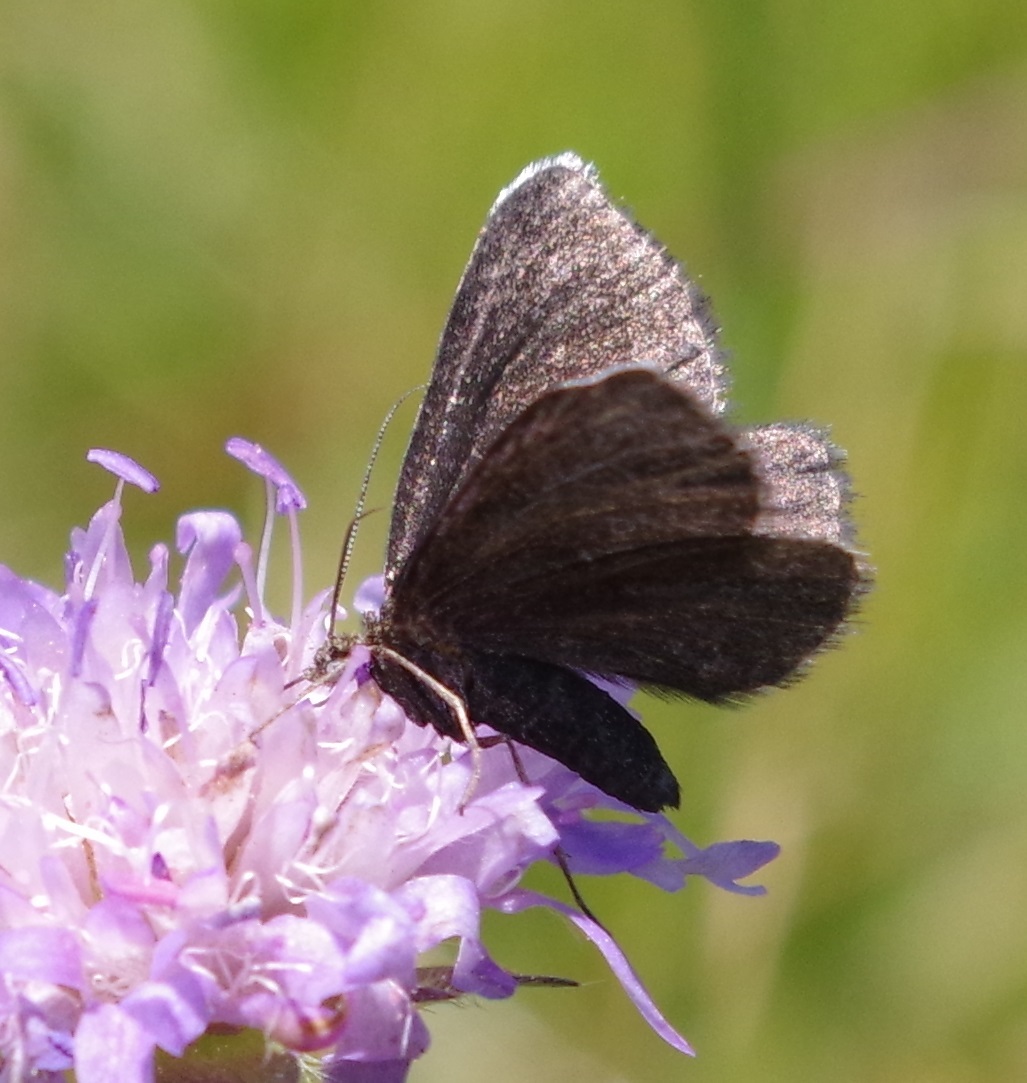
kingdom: Animalia
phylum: Arthropoda
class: Insecta
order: Lepidoptera
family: Geometridae
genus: Odezia
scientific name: Odezia atrata
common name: Chimney sweeper
